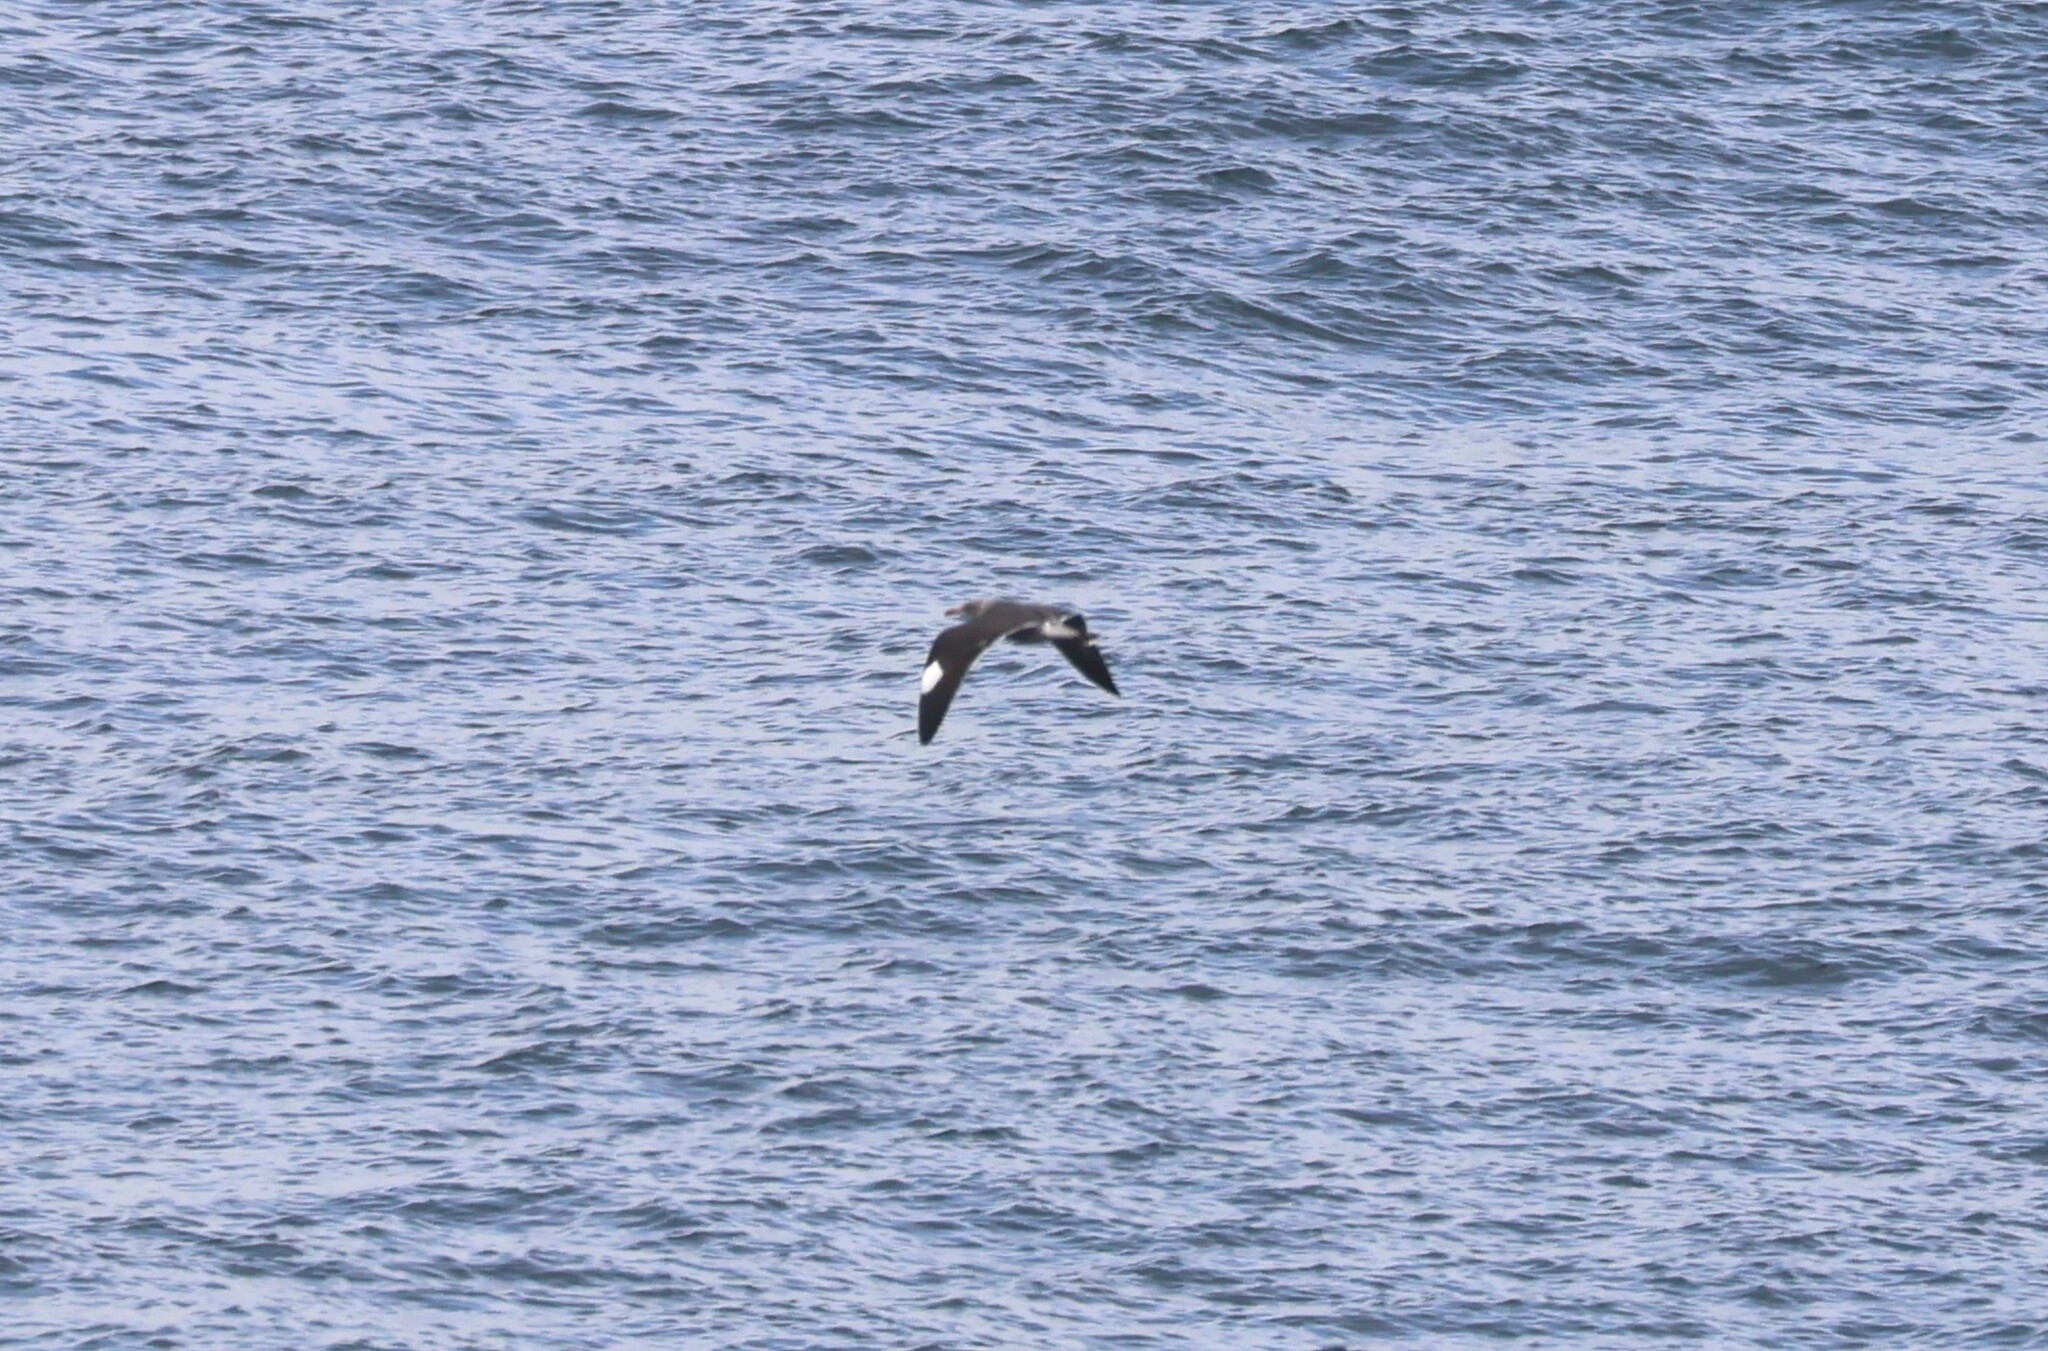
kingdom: Animalia
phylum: Chordata
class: Aves
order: Charadriiformes
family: Laridae
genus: Larus
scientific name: Larus heermanni
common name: Heermann's gull
